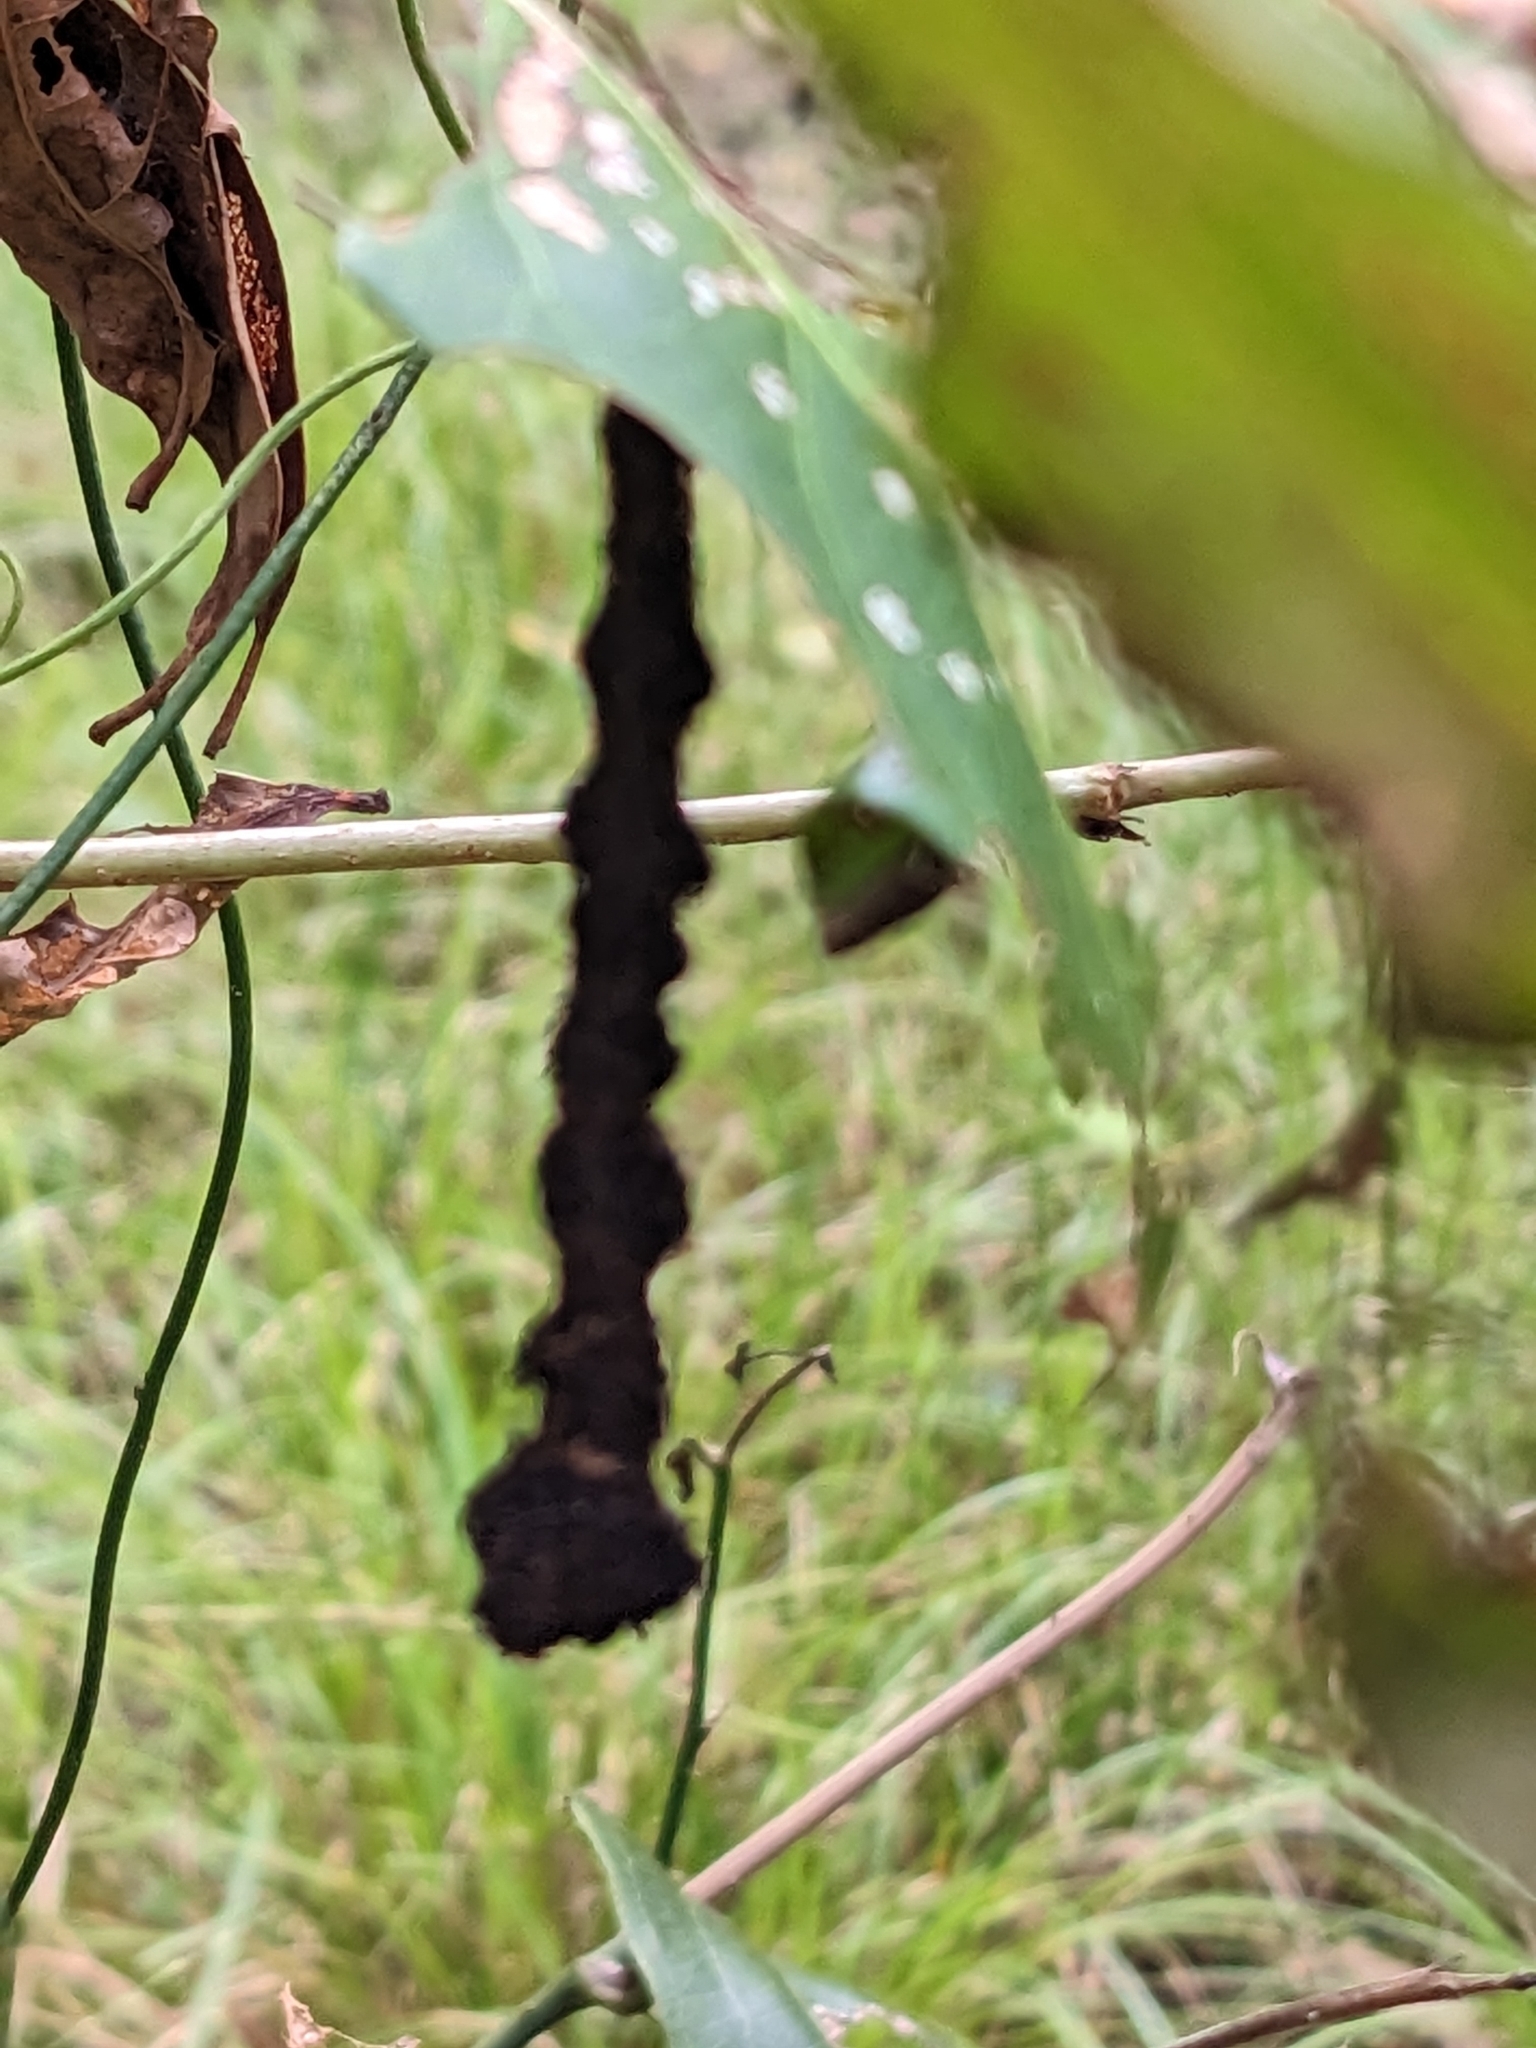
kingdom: Animalia
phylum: Arthropoda
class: Insecta
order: Lepidoptera
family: Pyralidae
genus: Stericta
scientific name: Stericta orchidivora
